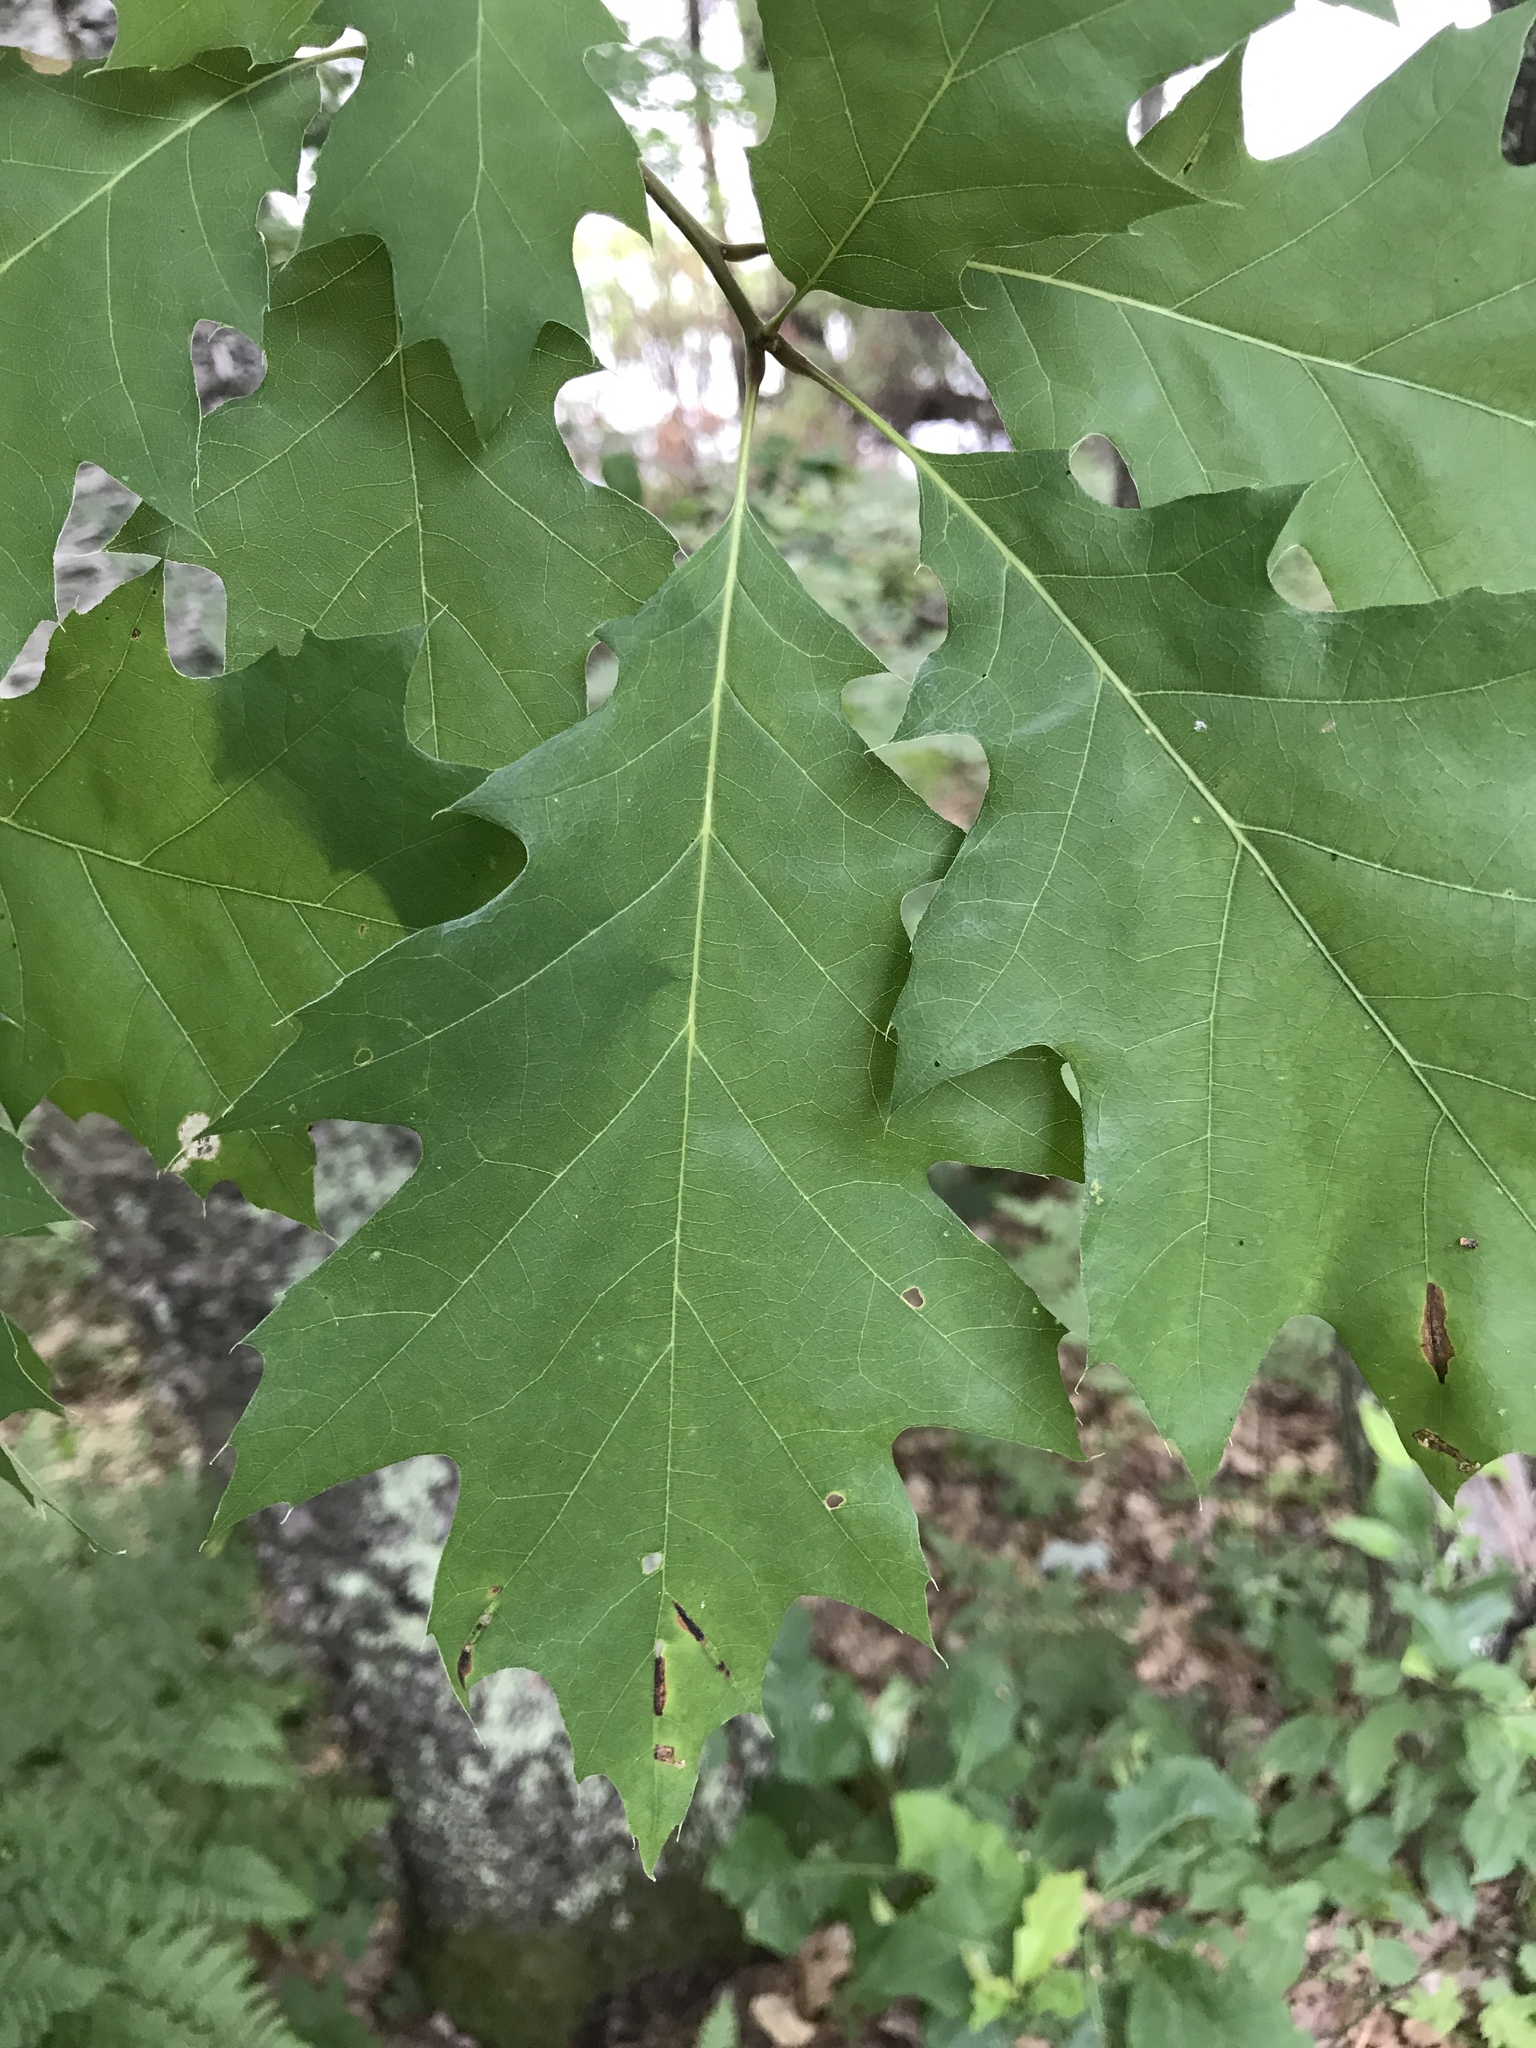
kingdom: Plantae
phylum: Tracheophyta
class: Magnoliopsida
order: Fagales
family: Fagaceae
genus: Quercus
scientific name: Quercus rubra
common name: Red oak
